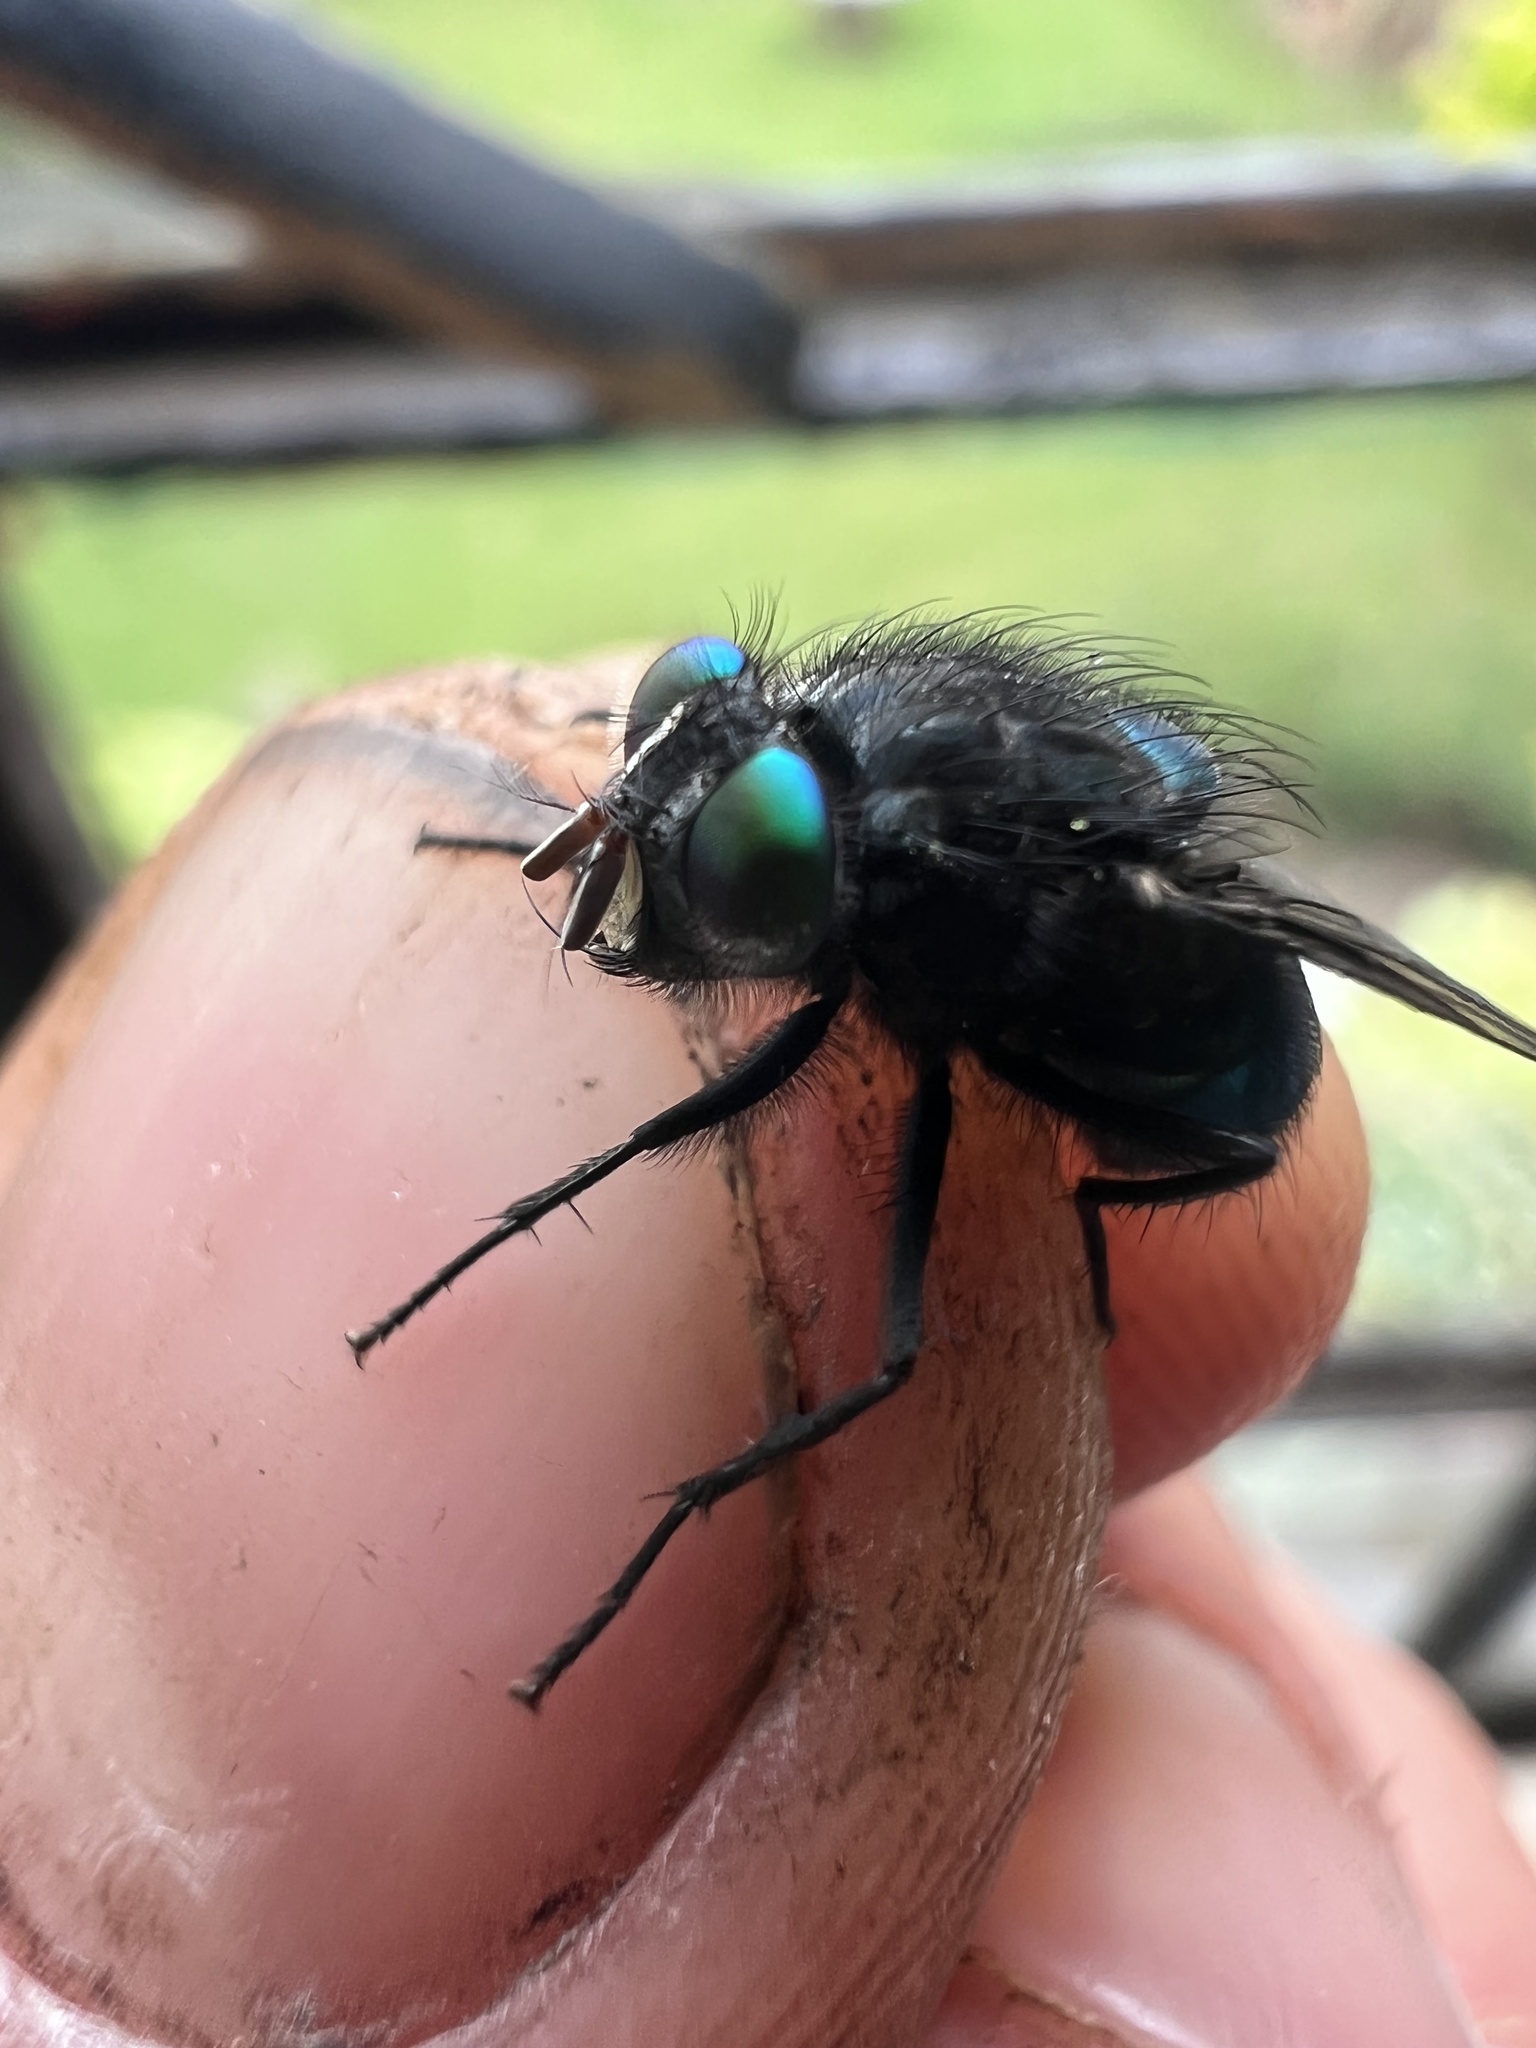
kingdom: Animalia
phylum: Arthropoda
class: Insecta
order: Diptera
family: Calliphoridae
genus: Sarconesia
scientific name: Sarconesia roraima
